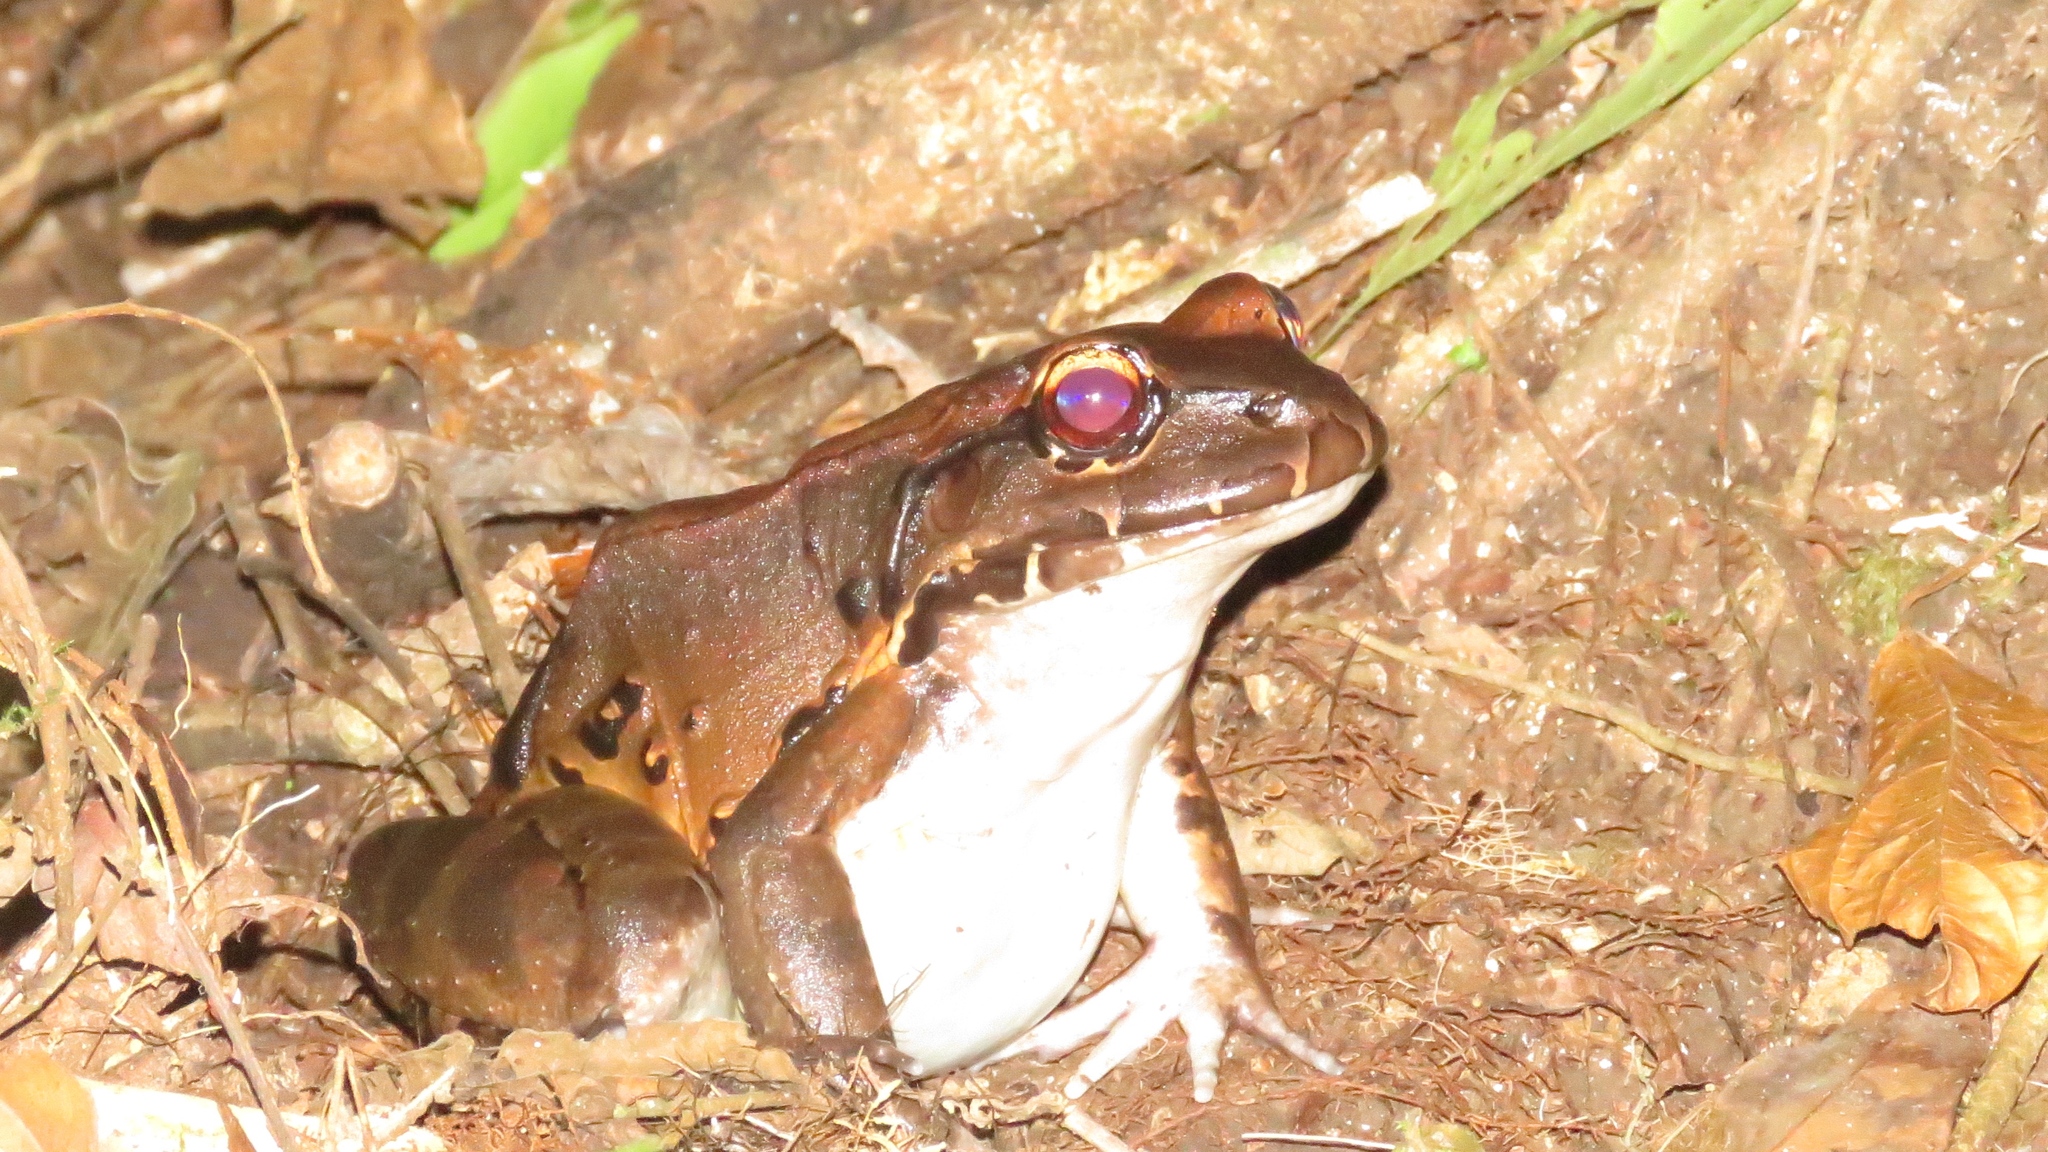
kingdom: Animalia
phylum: Chordata
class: Amphibia
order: Anura
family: Leptodactylidae
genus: Leptodactylus
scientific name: Leptodactylus savagei
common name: Savage's thin-toed frog
